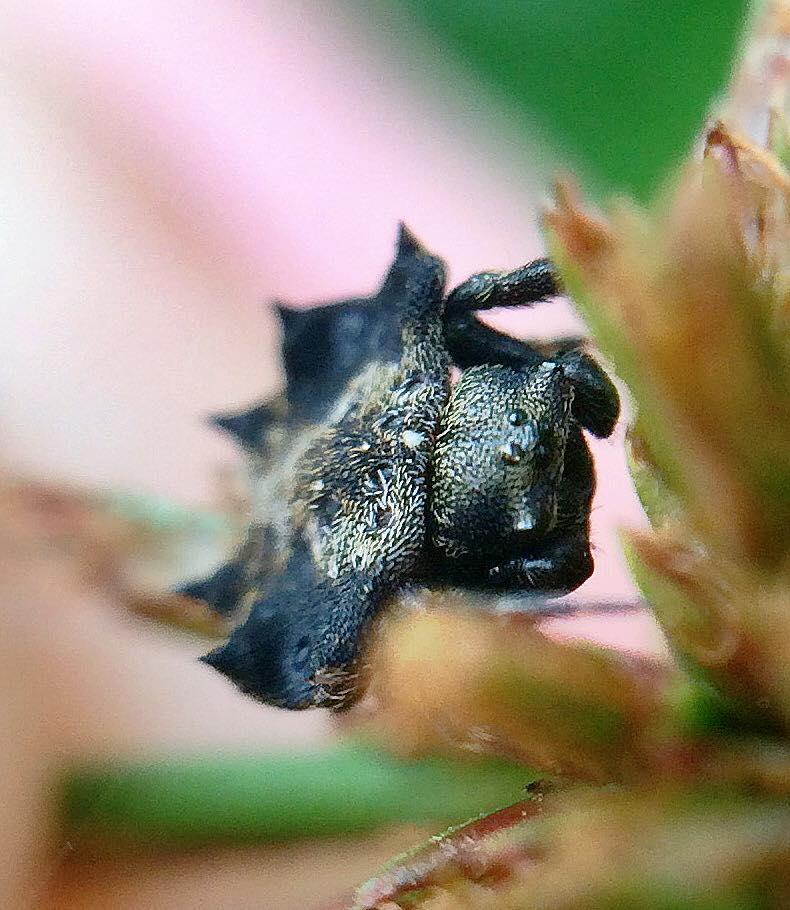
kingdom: Animalia
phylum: Arthropoda
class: Arachnida
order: Araneae
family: Araneidae
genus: Isoxya
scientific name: Isoxya tabulata
